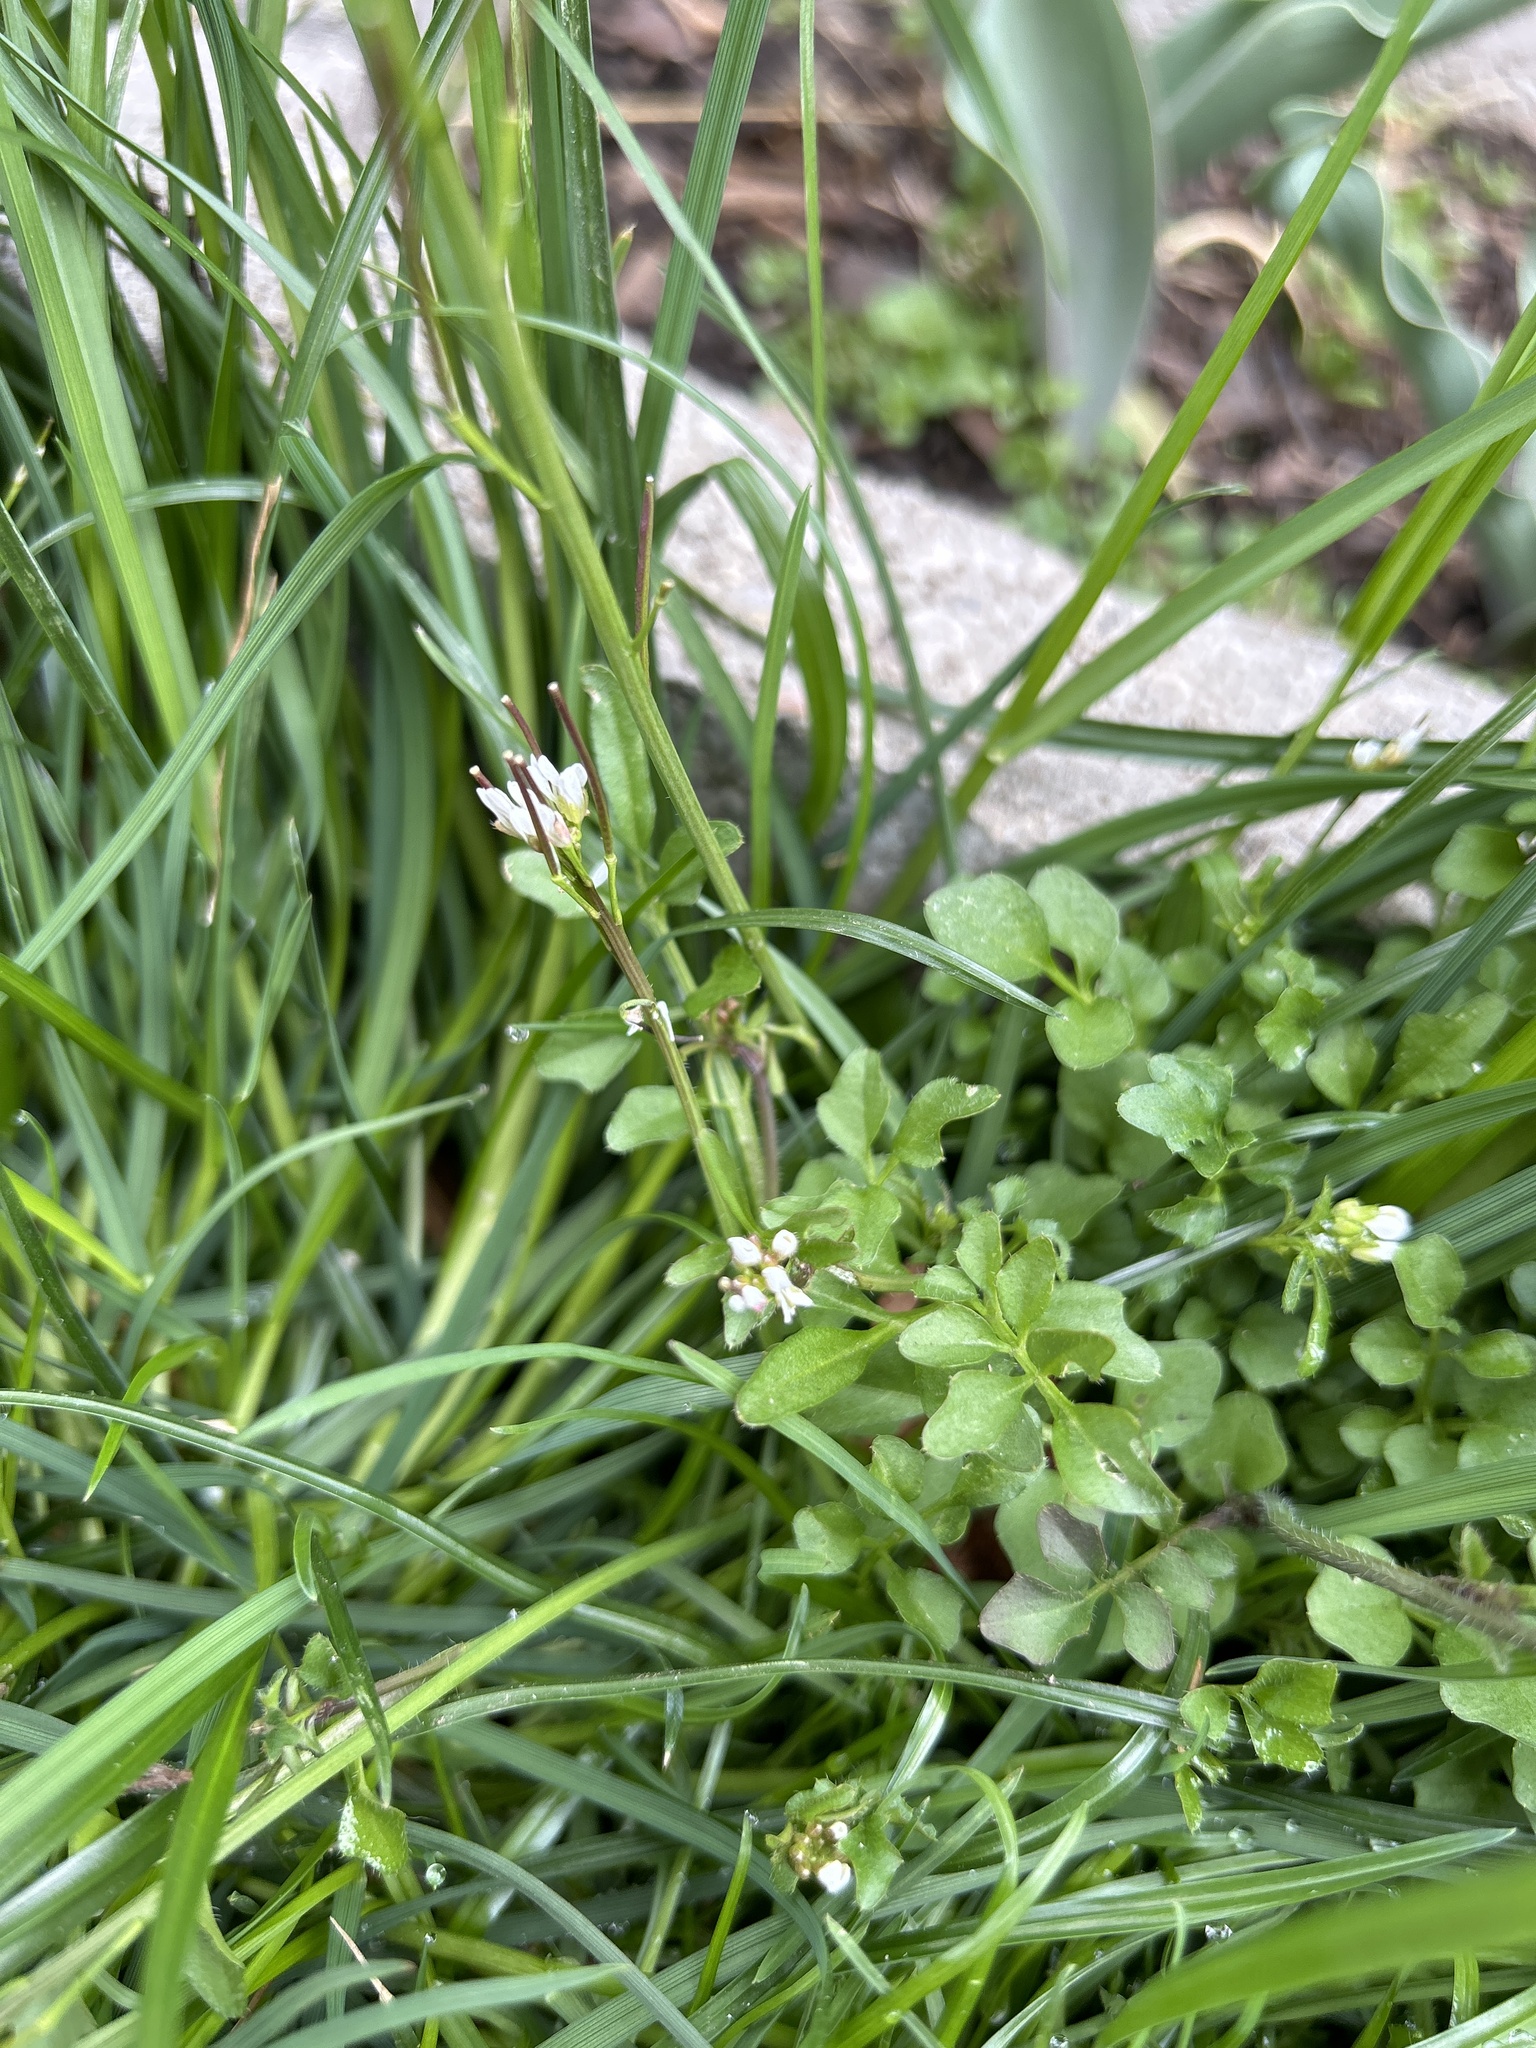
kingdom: Plantae
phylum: Tracheophyta
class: Magnoliopsida
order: Brassicales
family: Brassicaceae
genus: Cardamine
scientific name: Cardamine hirsuta
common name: Hairy bittercress
